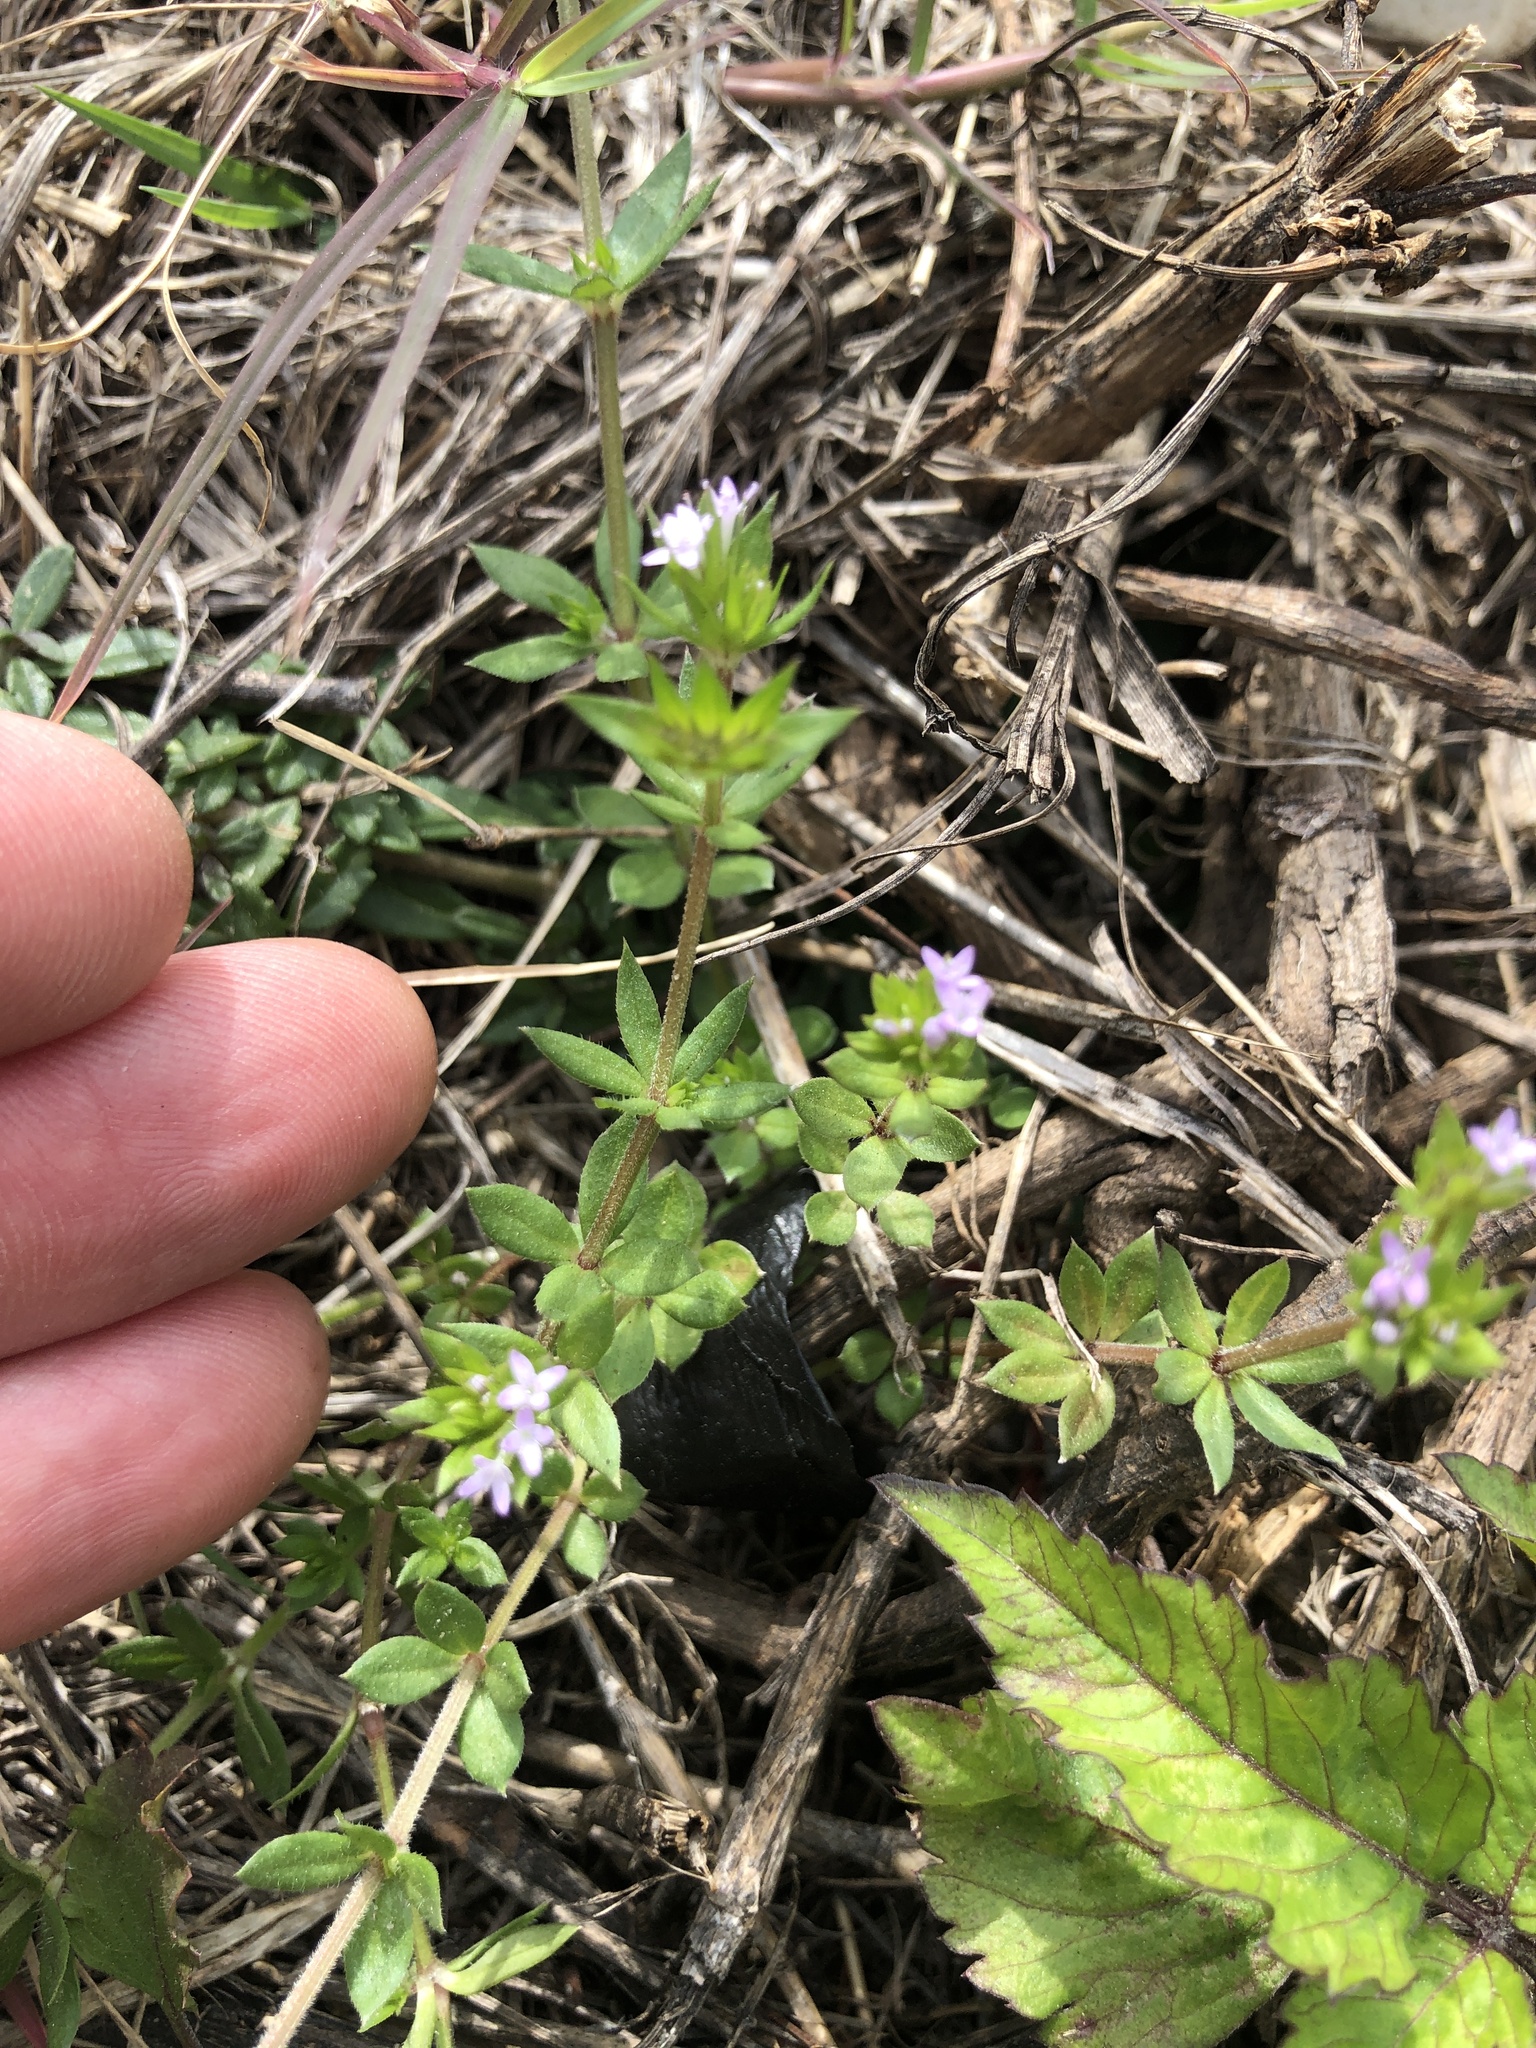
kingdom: Plantae
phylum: Tracheophyta
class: Magnoliopsida
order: Gentianales
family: Rubiaceae
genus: Sherardia
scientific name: Sherardia arvensis
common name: Field madder
